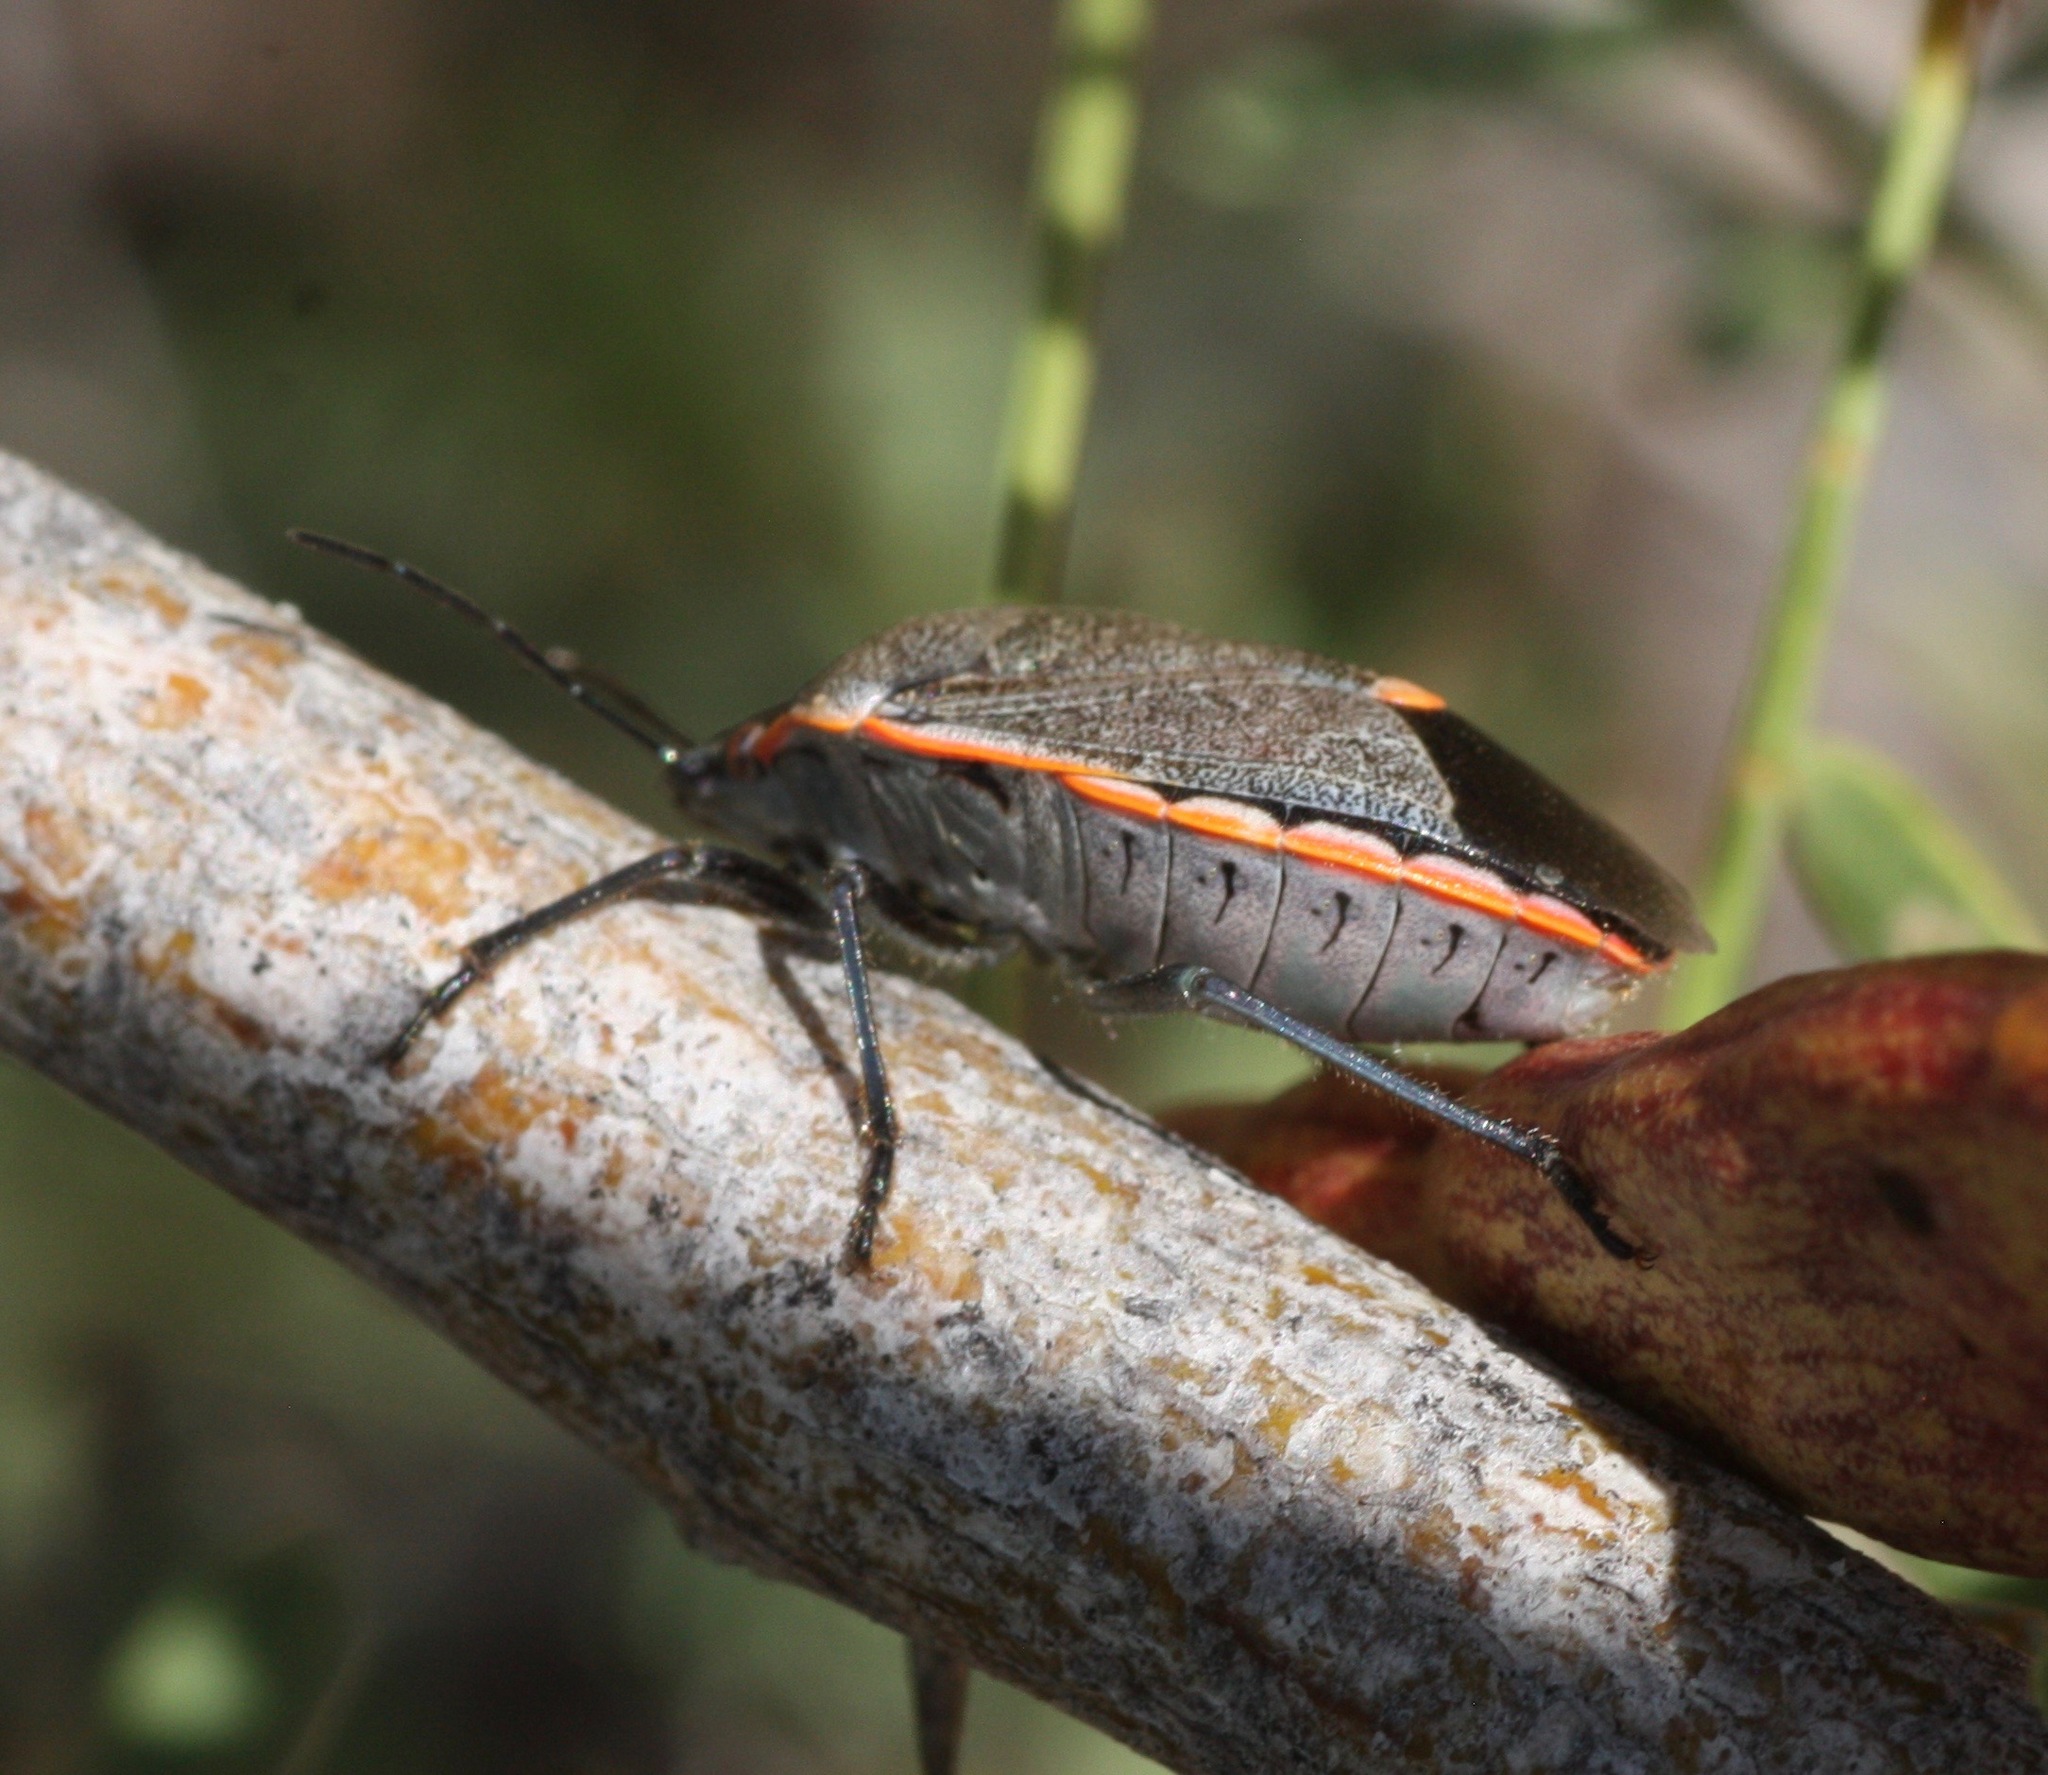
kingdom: Animalia
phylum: Arthropoda
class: Insecta
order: Hemiptera
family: Pentatomidae
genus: Chlorochroa
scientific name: Chlorochroa ligata
